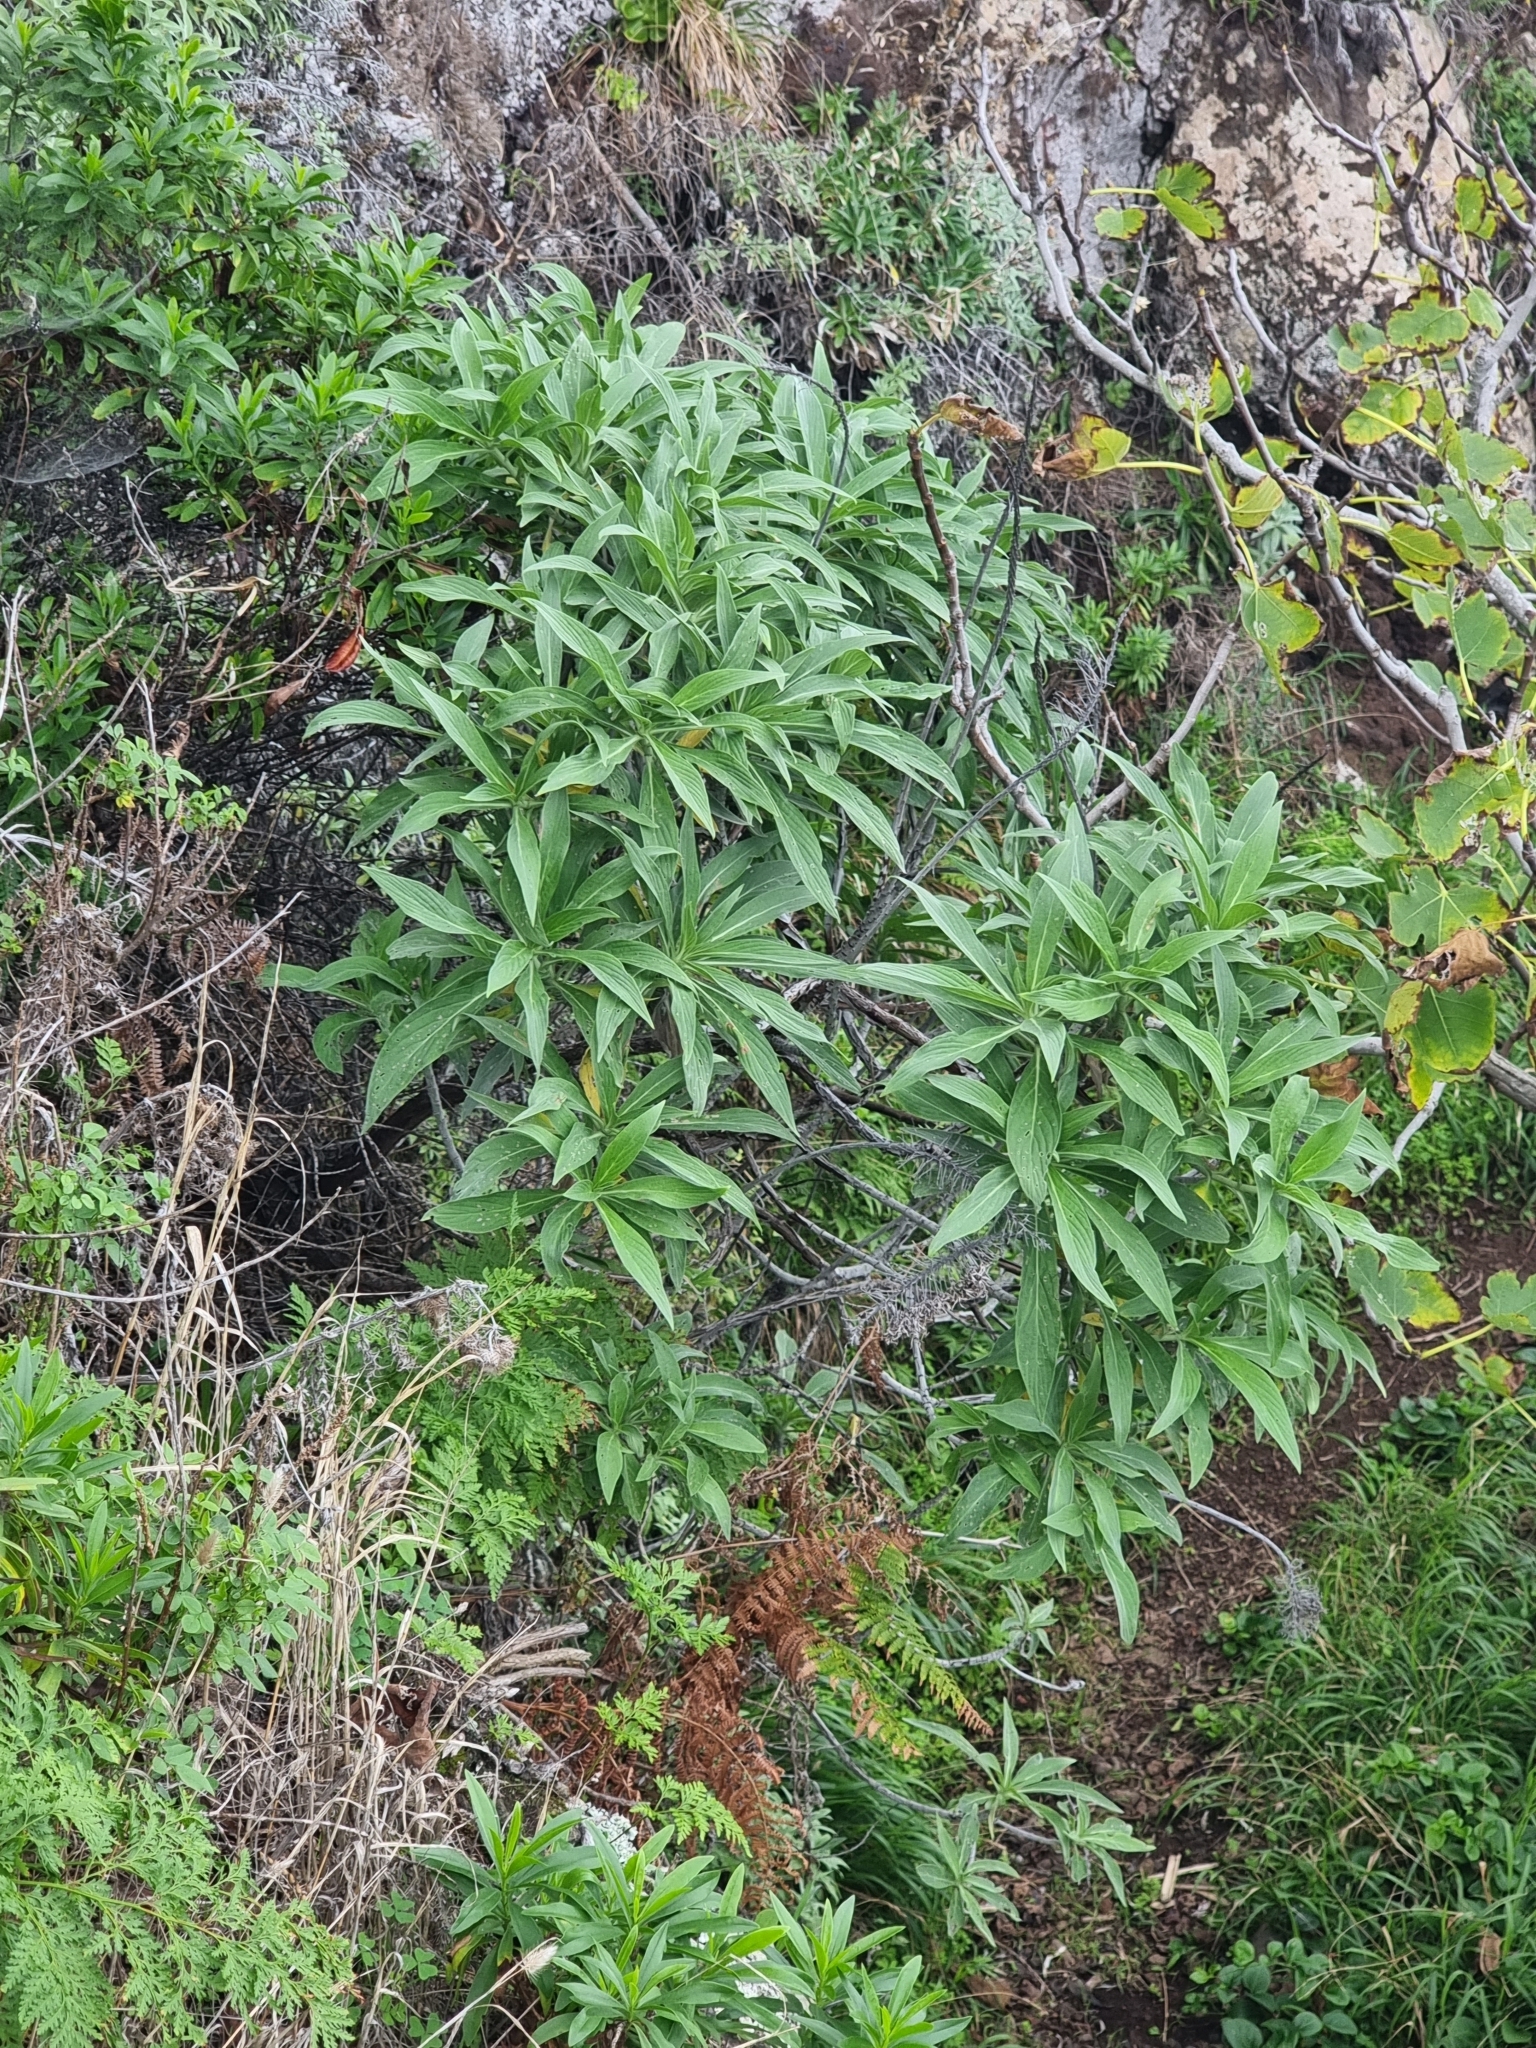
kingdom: Plantae
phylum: Tracheophyta
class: Magnoliopsida
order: Boraginales
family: Boraginaceae
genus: Echium
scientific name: Echium nervosum
